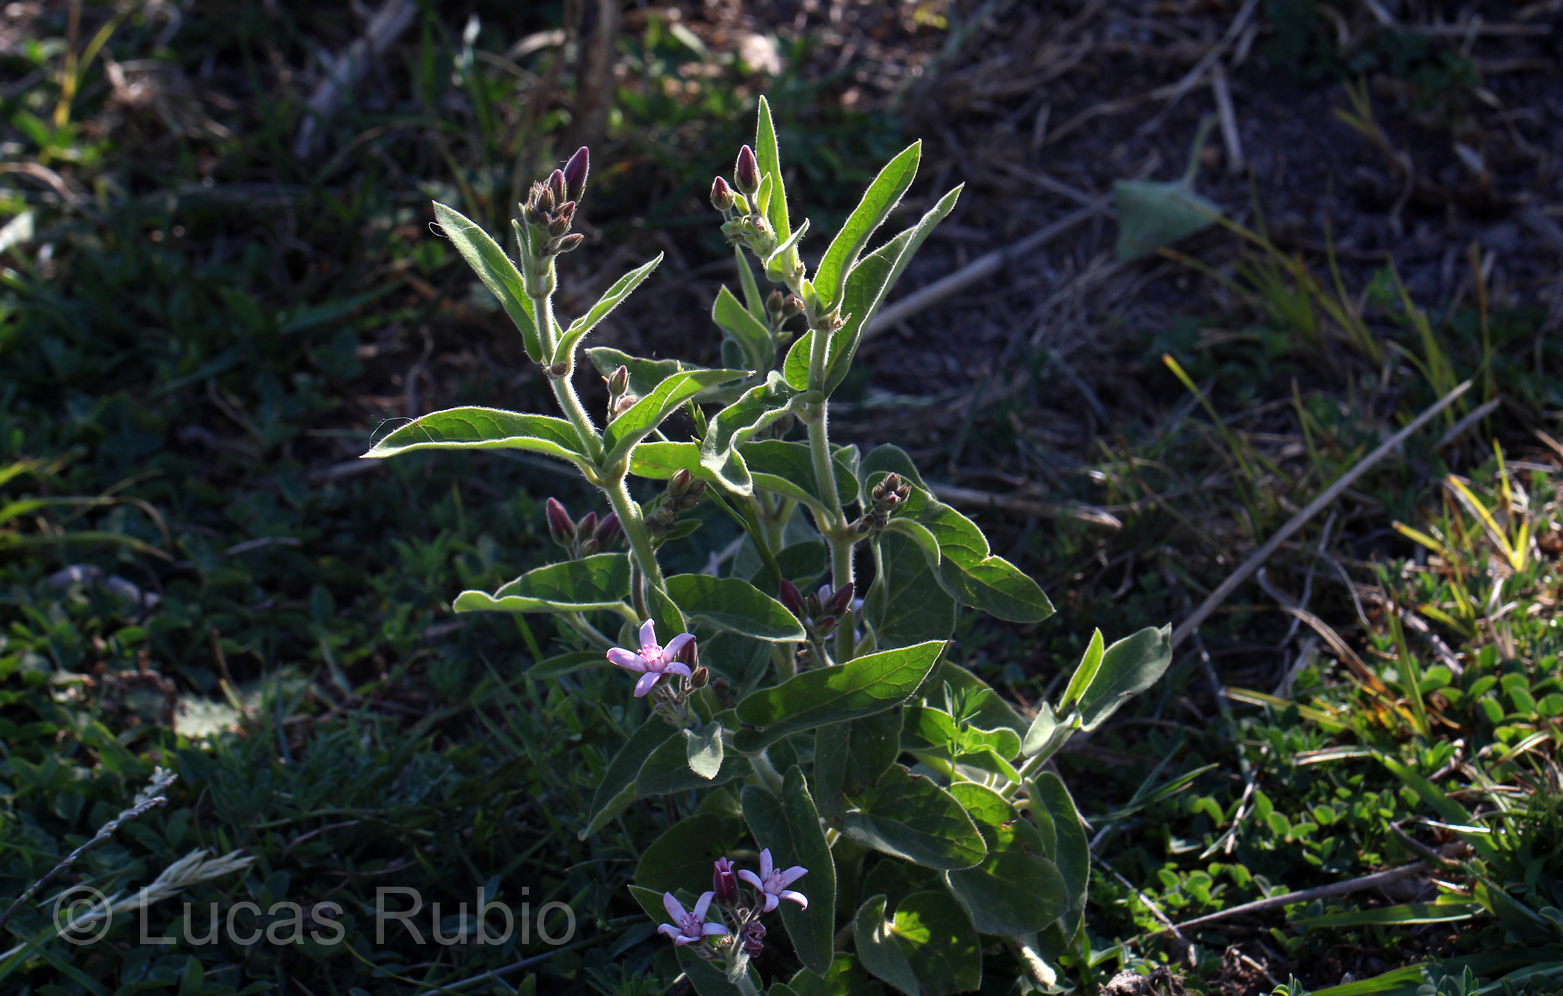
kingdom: Plantae
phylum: Tracheophyta
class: Magnoliopsida
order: Gentianales
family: Apocynaceae
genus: Oxypetalum
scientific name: Oxypetalum solanoides
